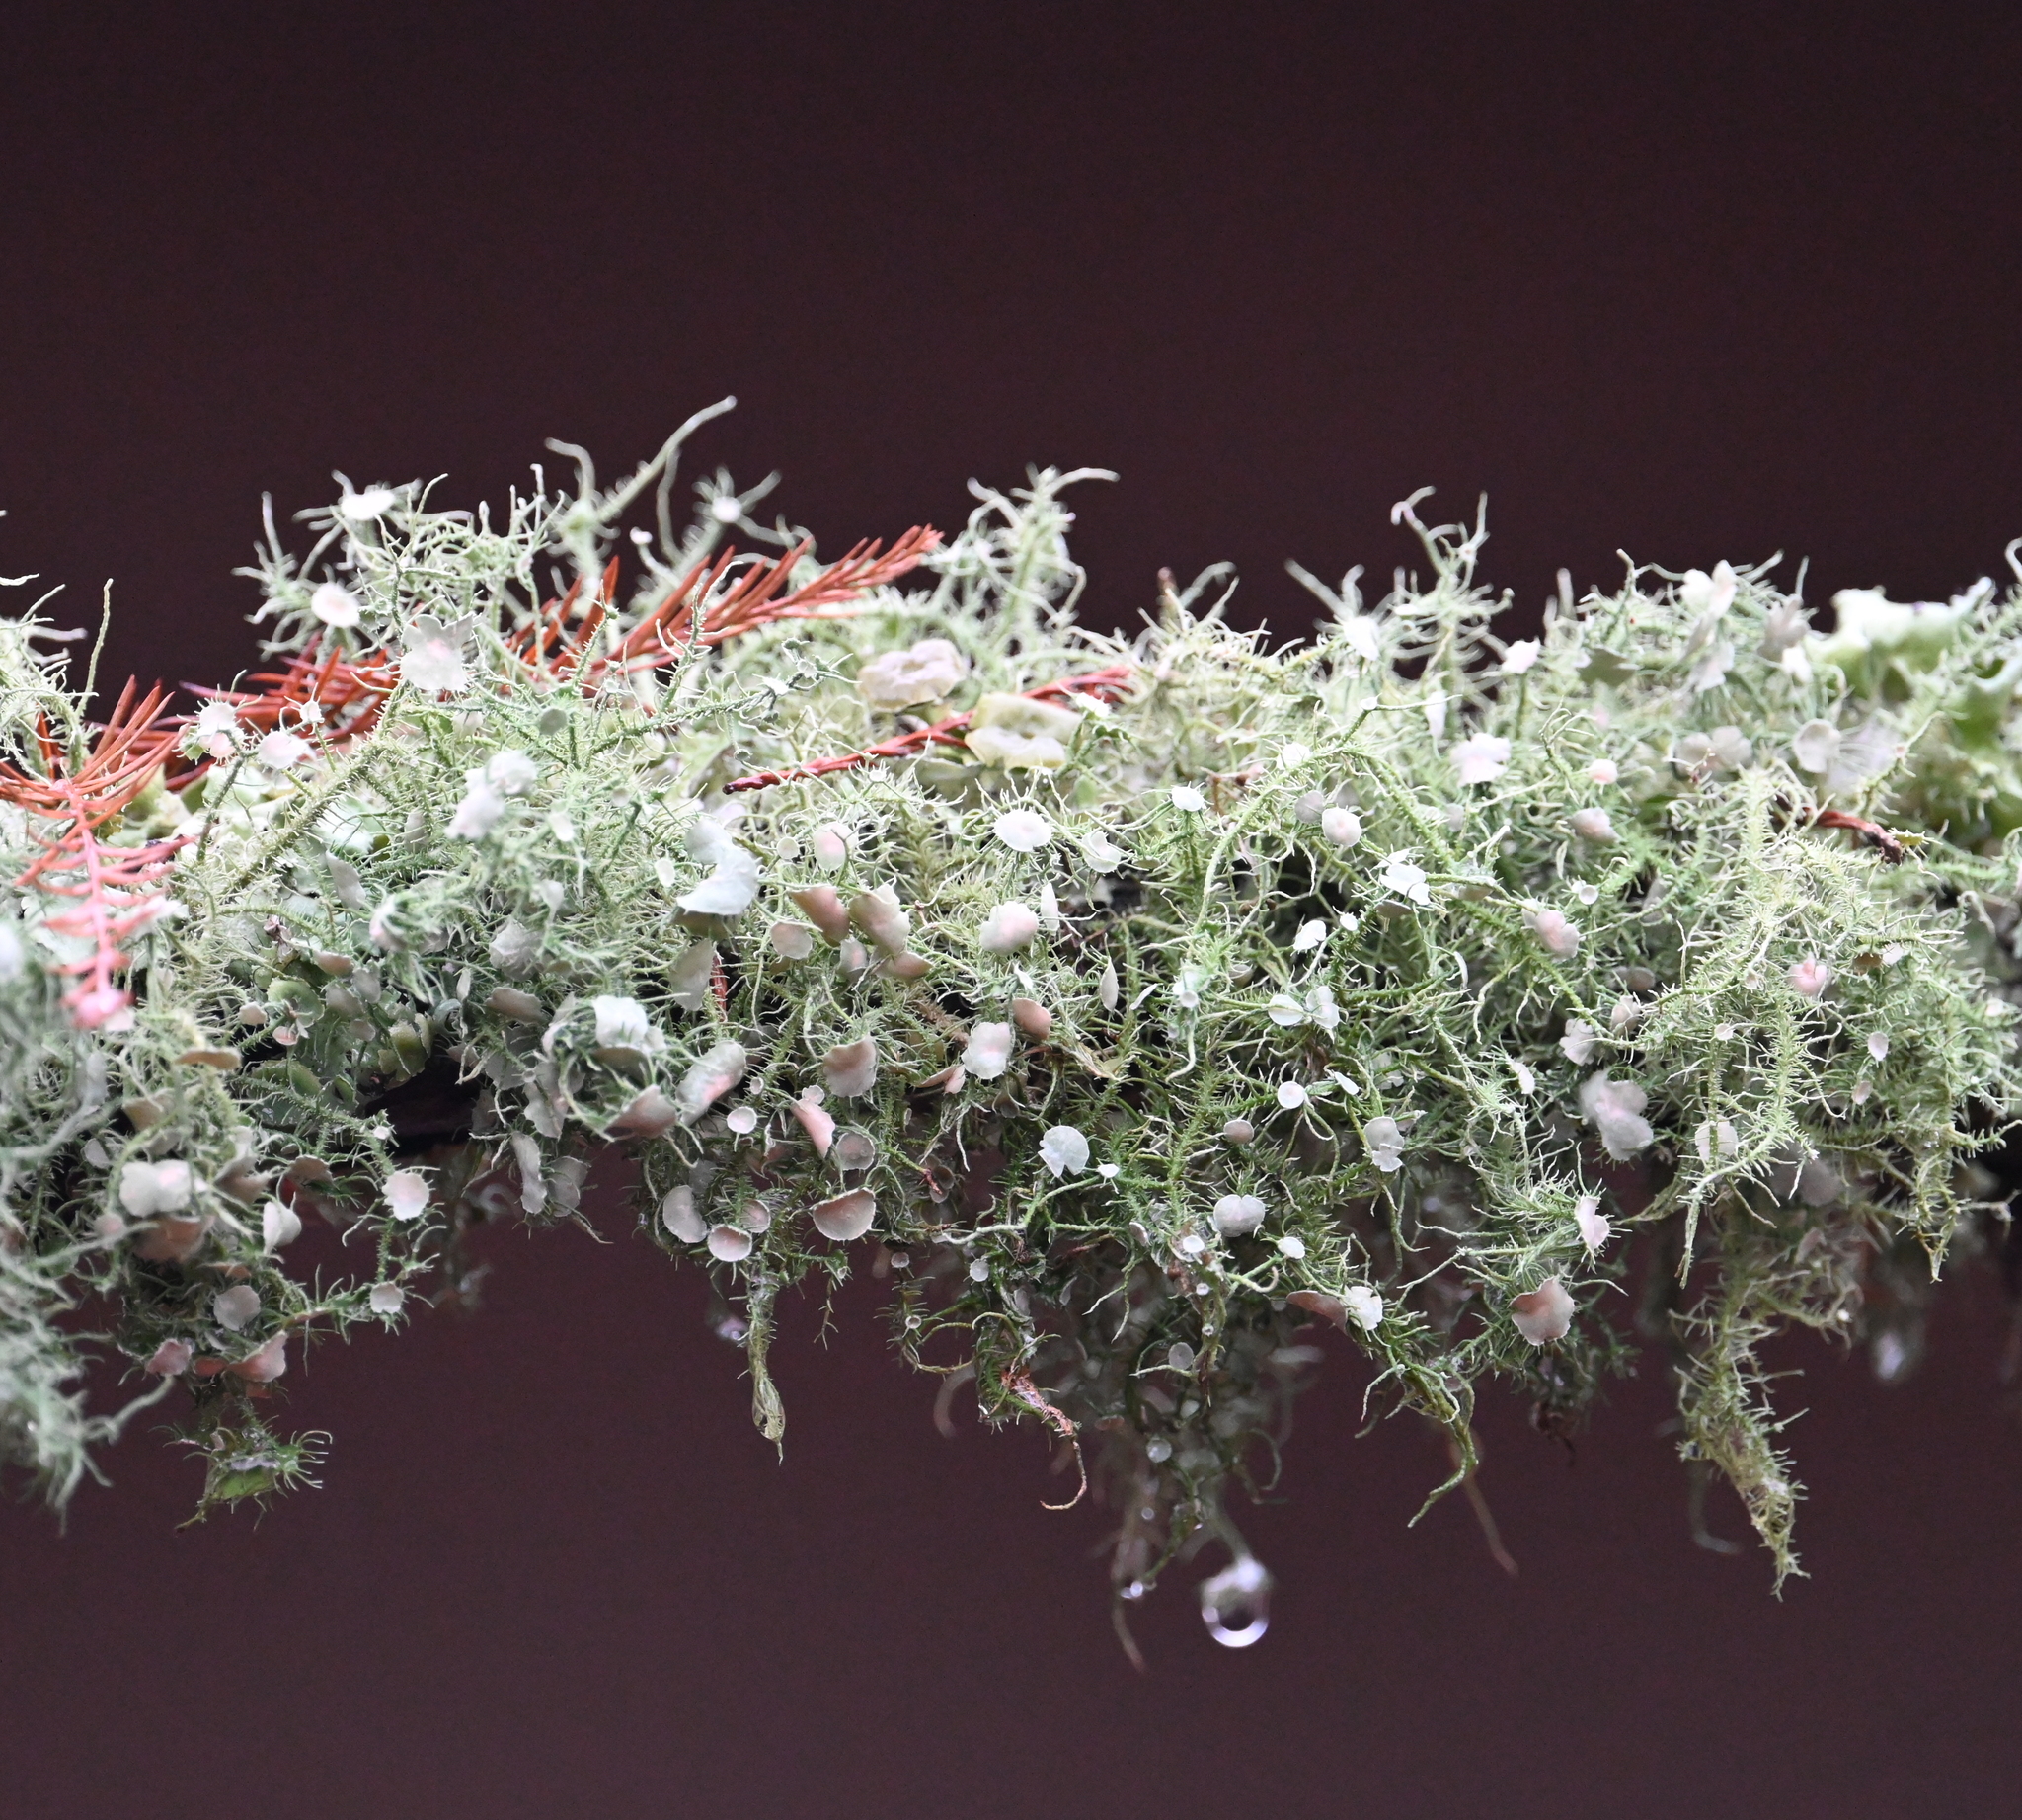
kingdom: Fungi
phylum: Ascomycota
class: Lecanoromycetes
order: Lecanorales
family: Parmeliaceae
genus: Usnea
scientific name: Usnea strigosa
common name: Bushy beard lichen
